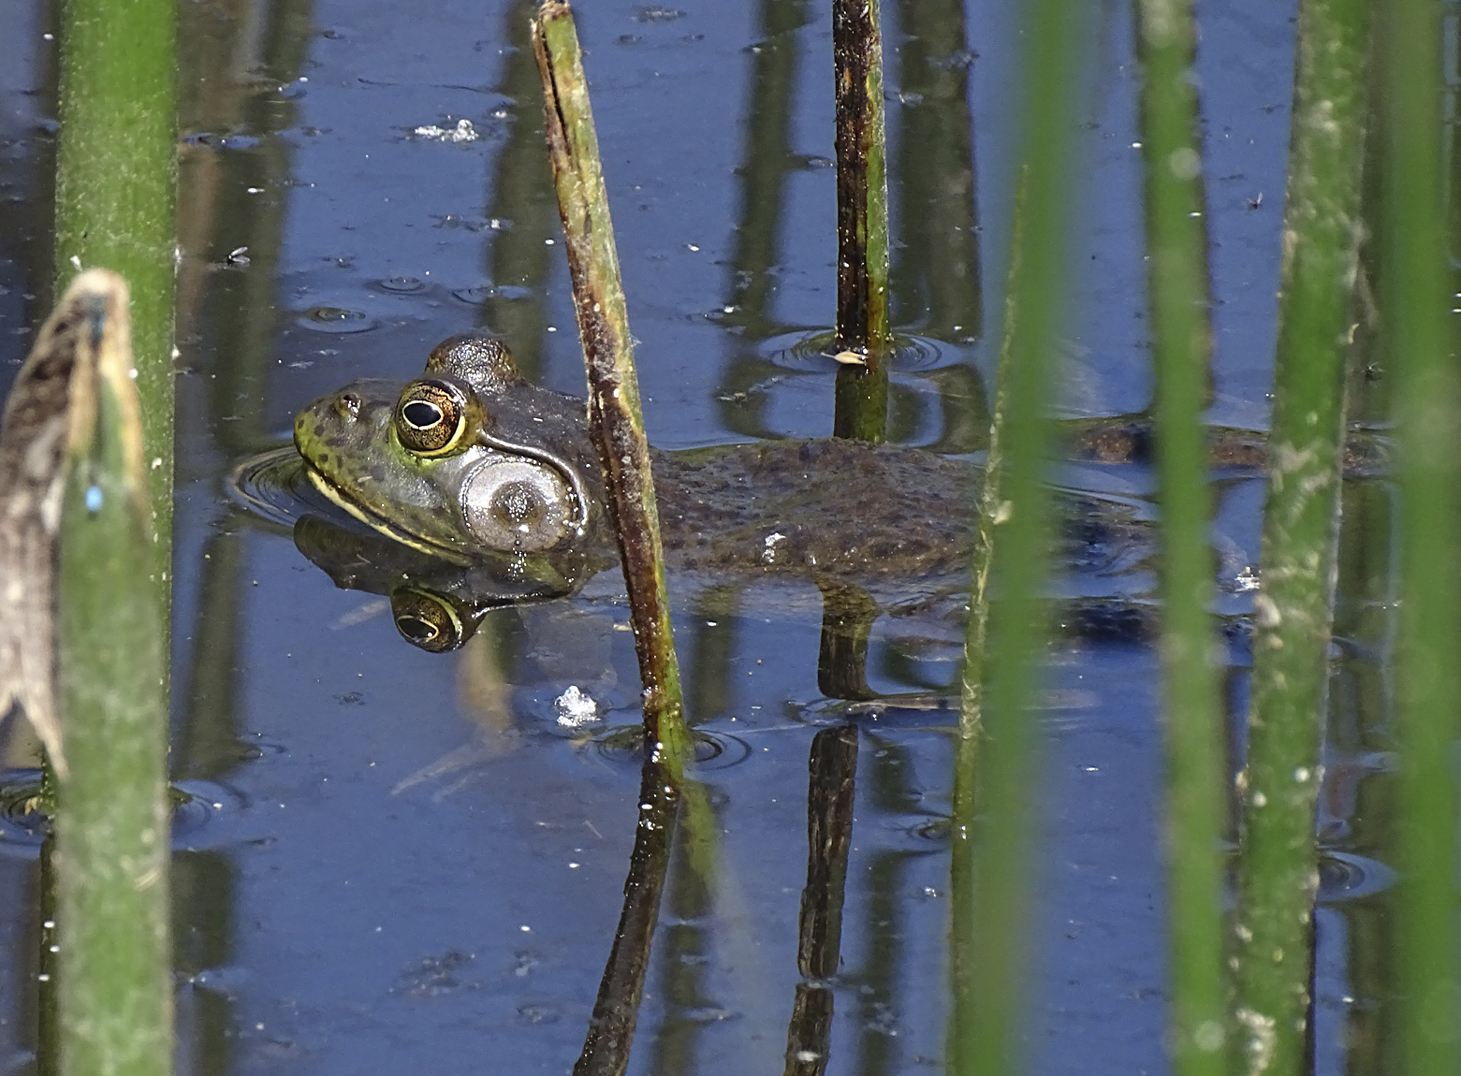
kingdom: Animalia
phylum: Chordata
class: Amphibia
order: Anura
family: Ranidae
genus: Lithobates
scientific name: Lithobates catesbeianus
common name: American bullfrog
